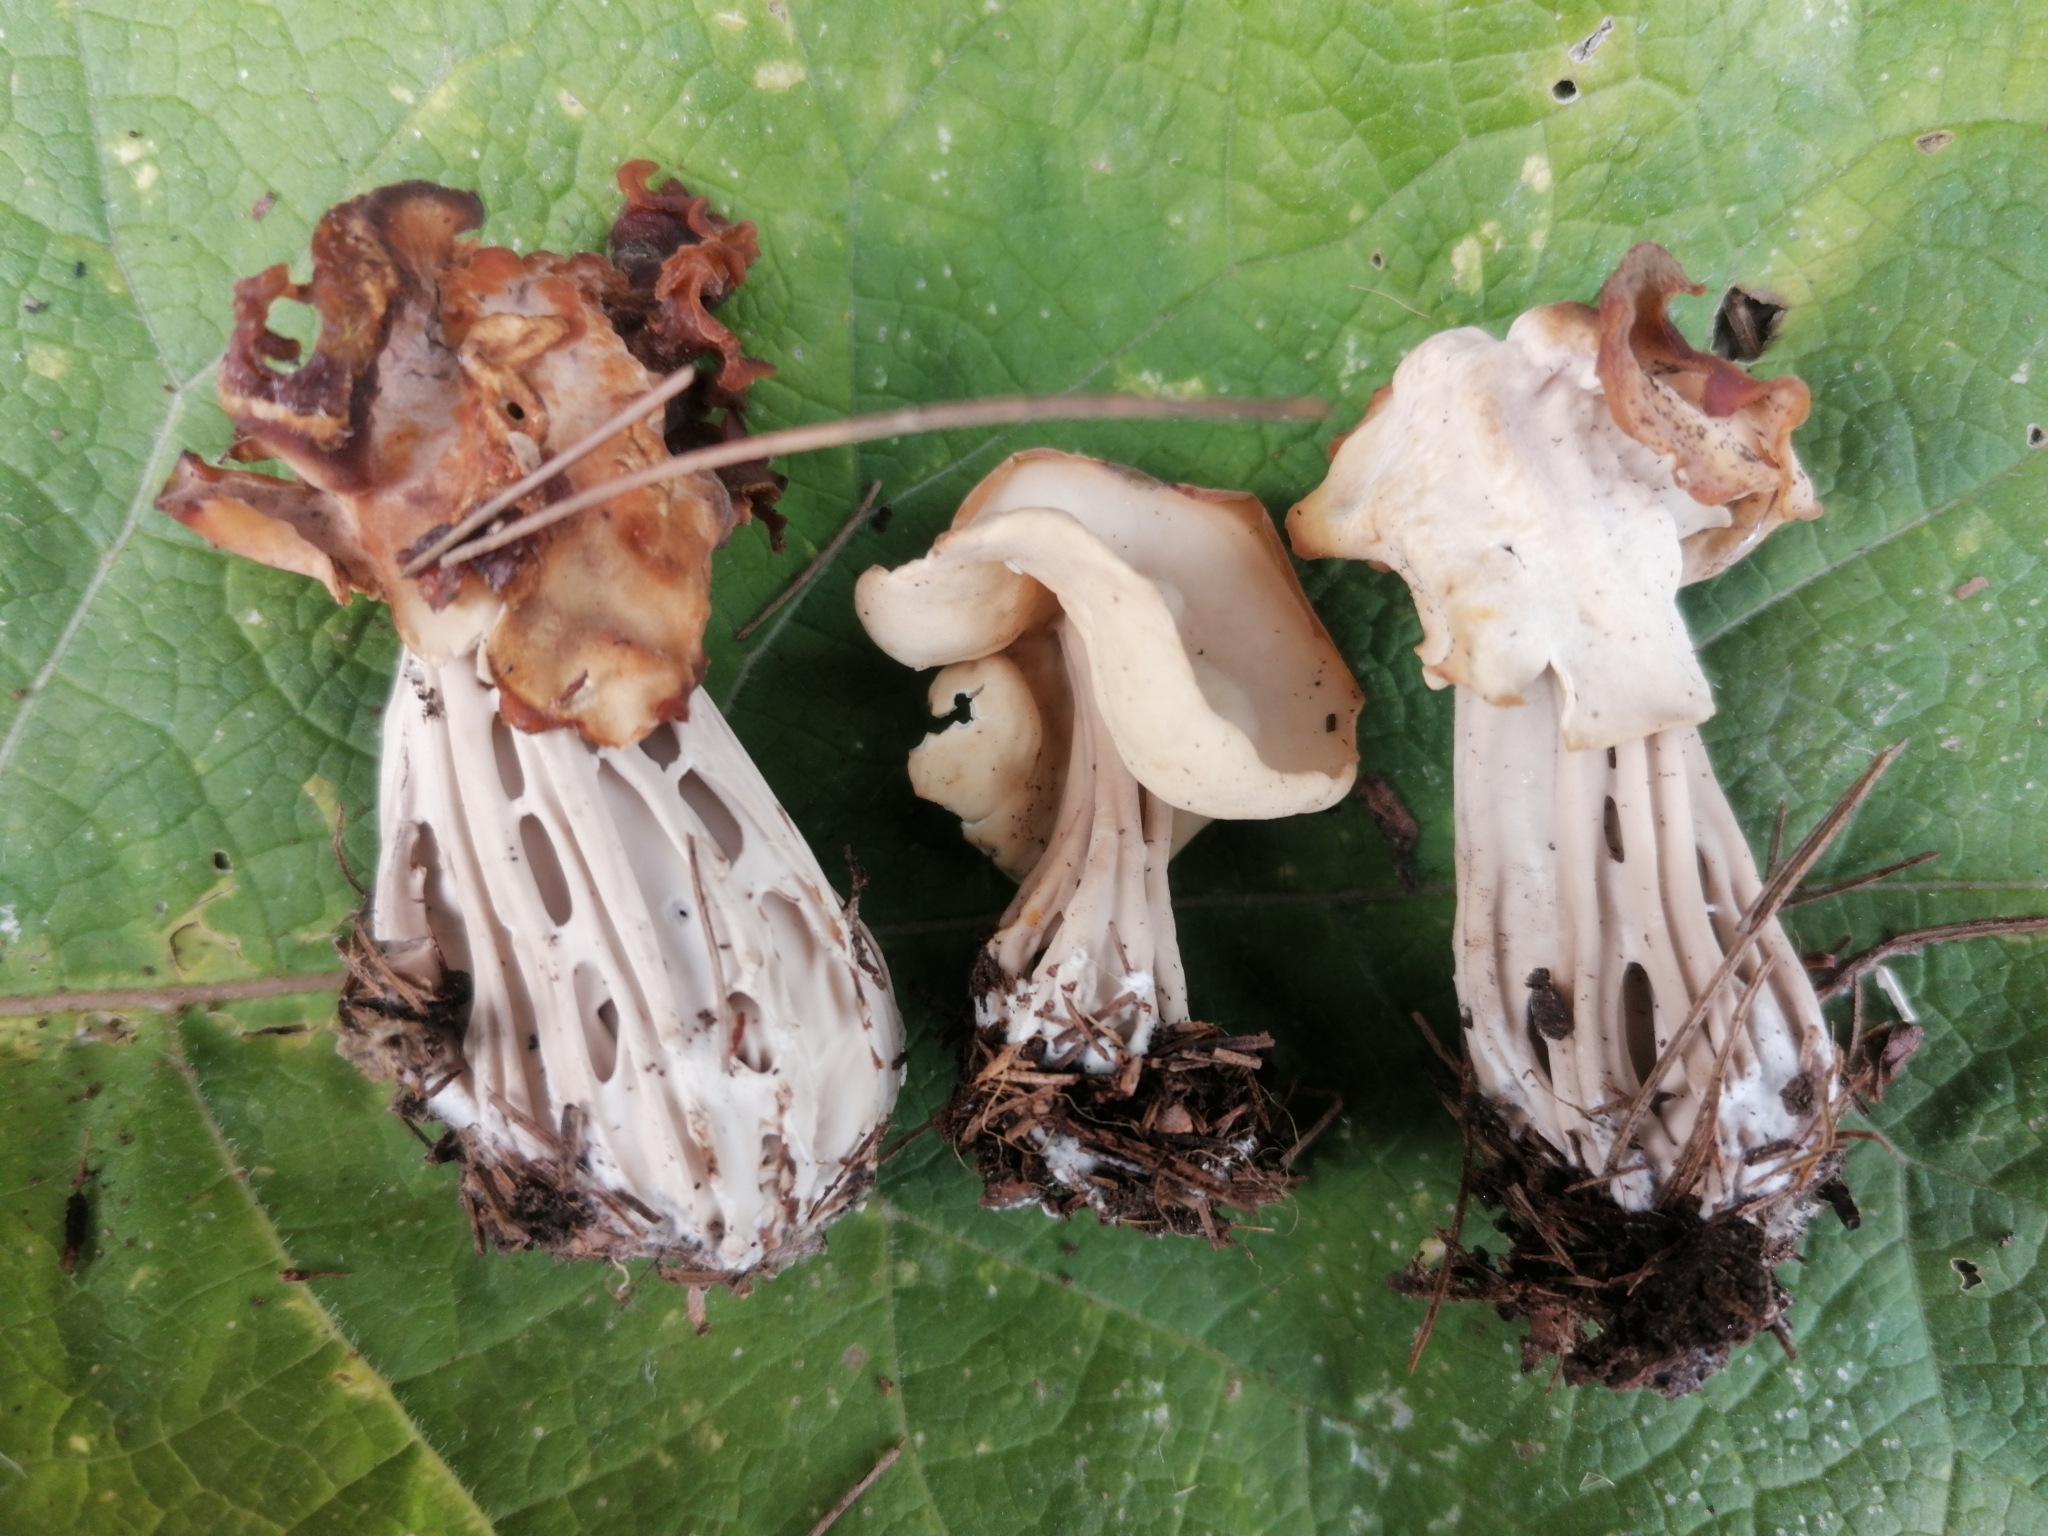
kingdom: Fungi
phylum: Ascomycota
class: Pezizomycetes
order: Pezizales
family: Helvellaceae
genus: Helvella
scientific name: Helvella crispa
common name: White saddle
